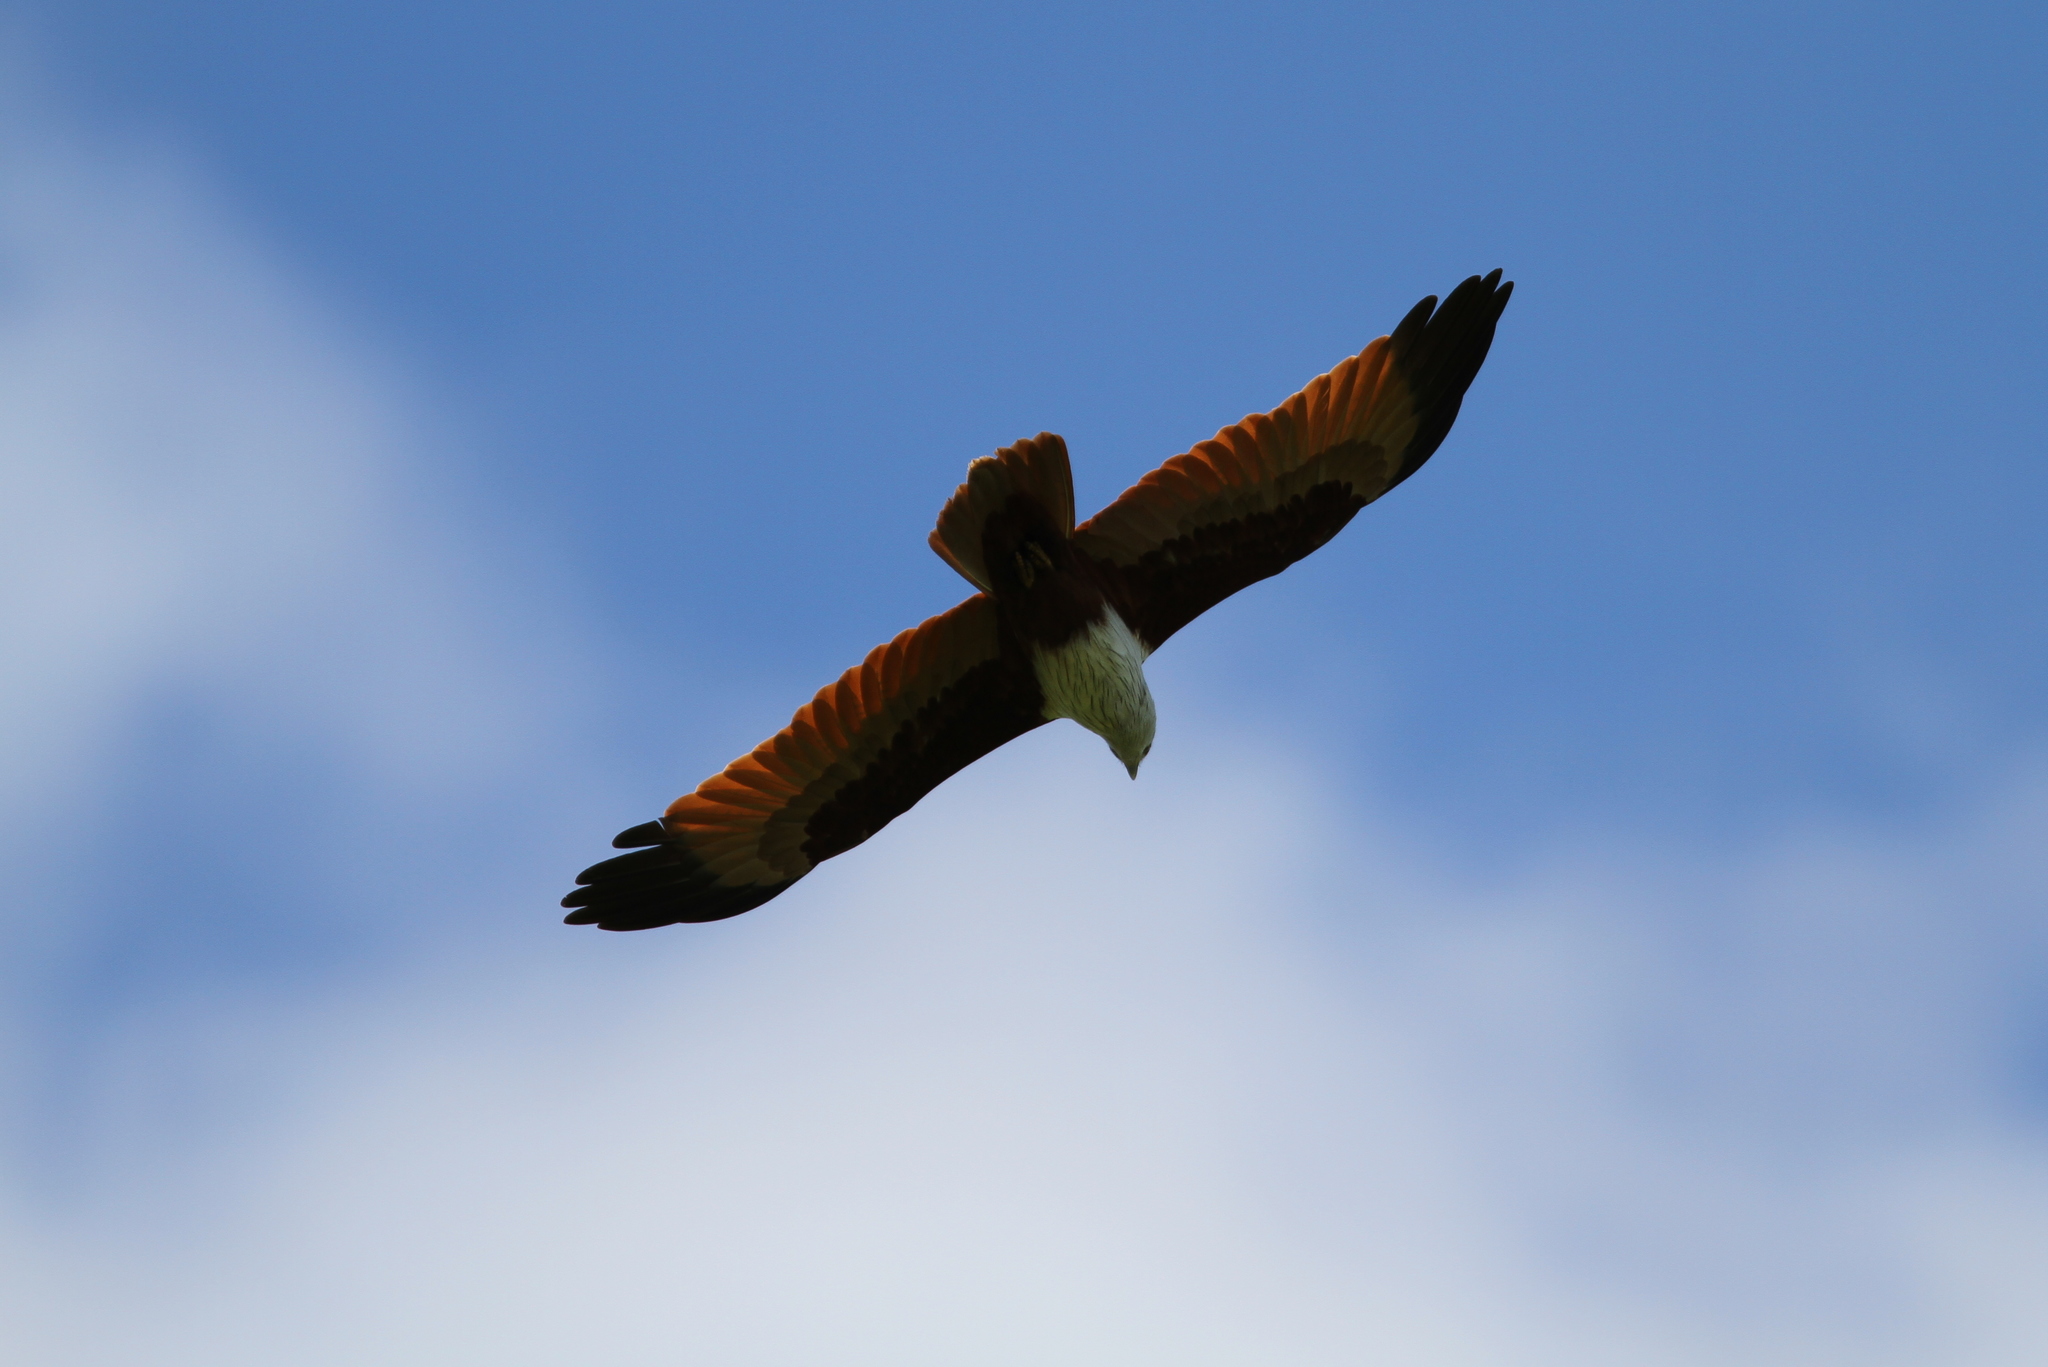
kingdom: Animalia
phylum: Chordata
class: Aves
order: Accipitriformes
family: Accipitridae
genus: Haliastur
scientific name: Haliastur indus
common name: Brahminy kite
